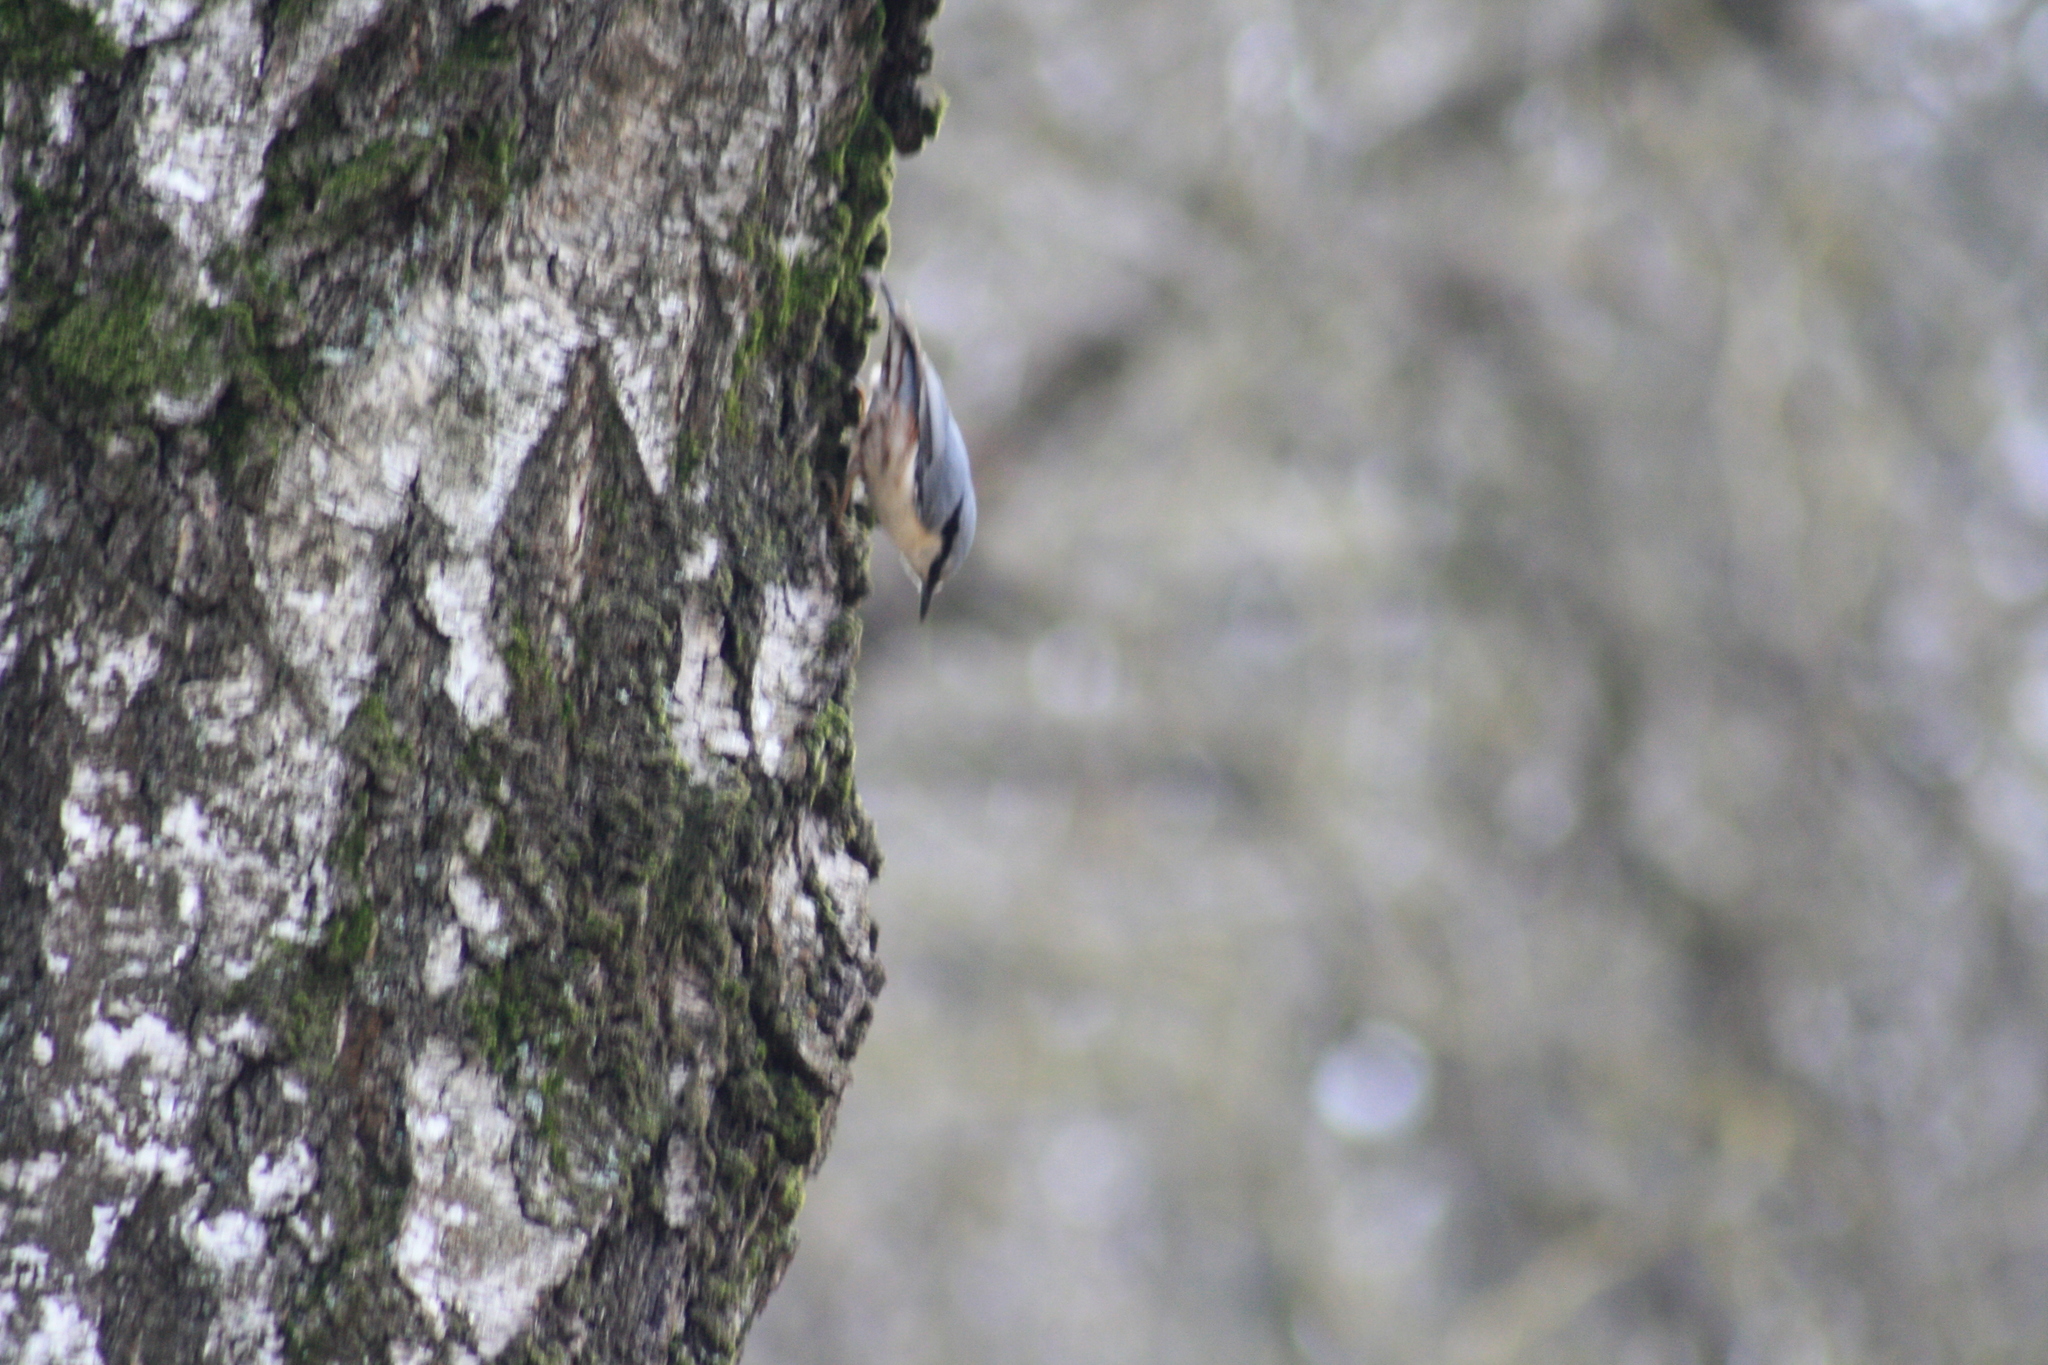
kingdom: Animalia
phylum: Chordata
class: Aves
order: Passeriformes
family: Sittidae
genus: Sitta
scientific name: Sitta europaea
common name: Eurasian nuthatch
